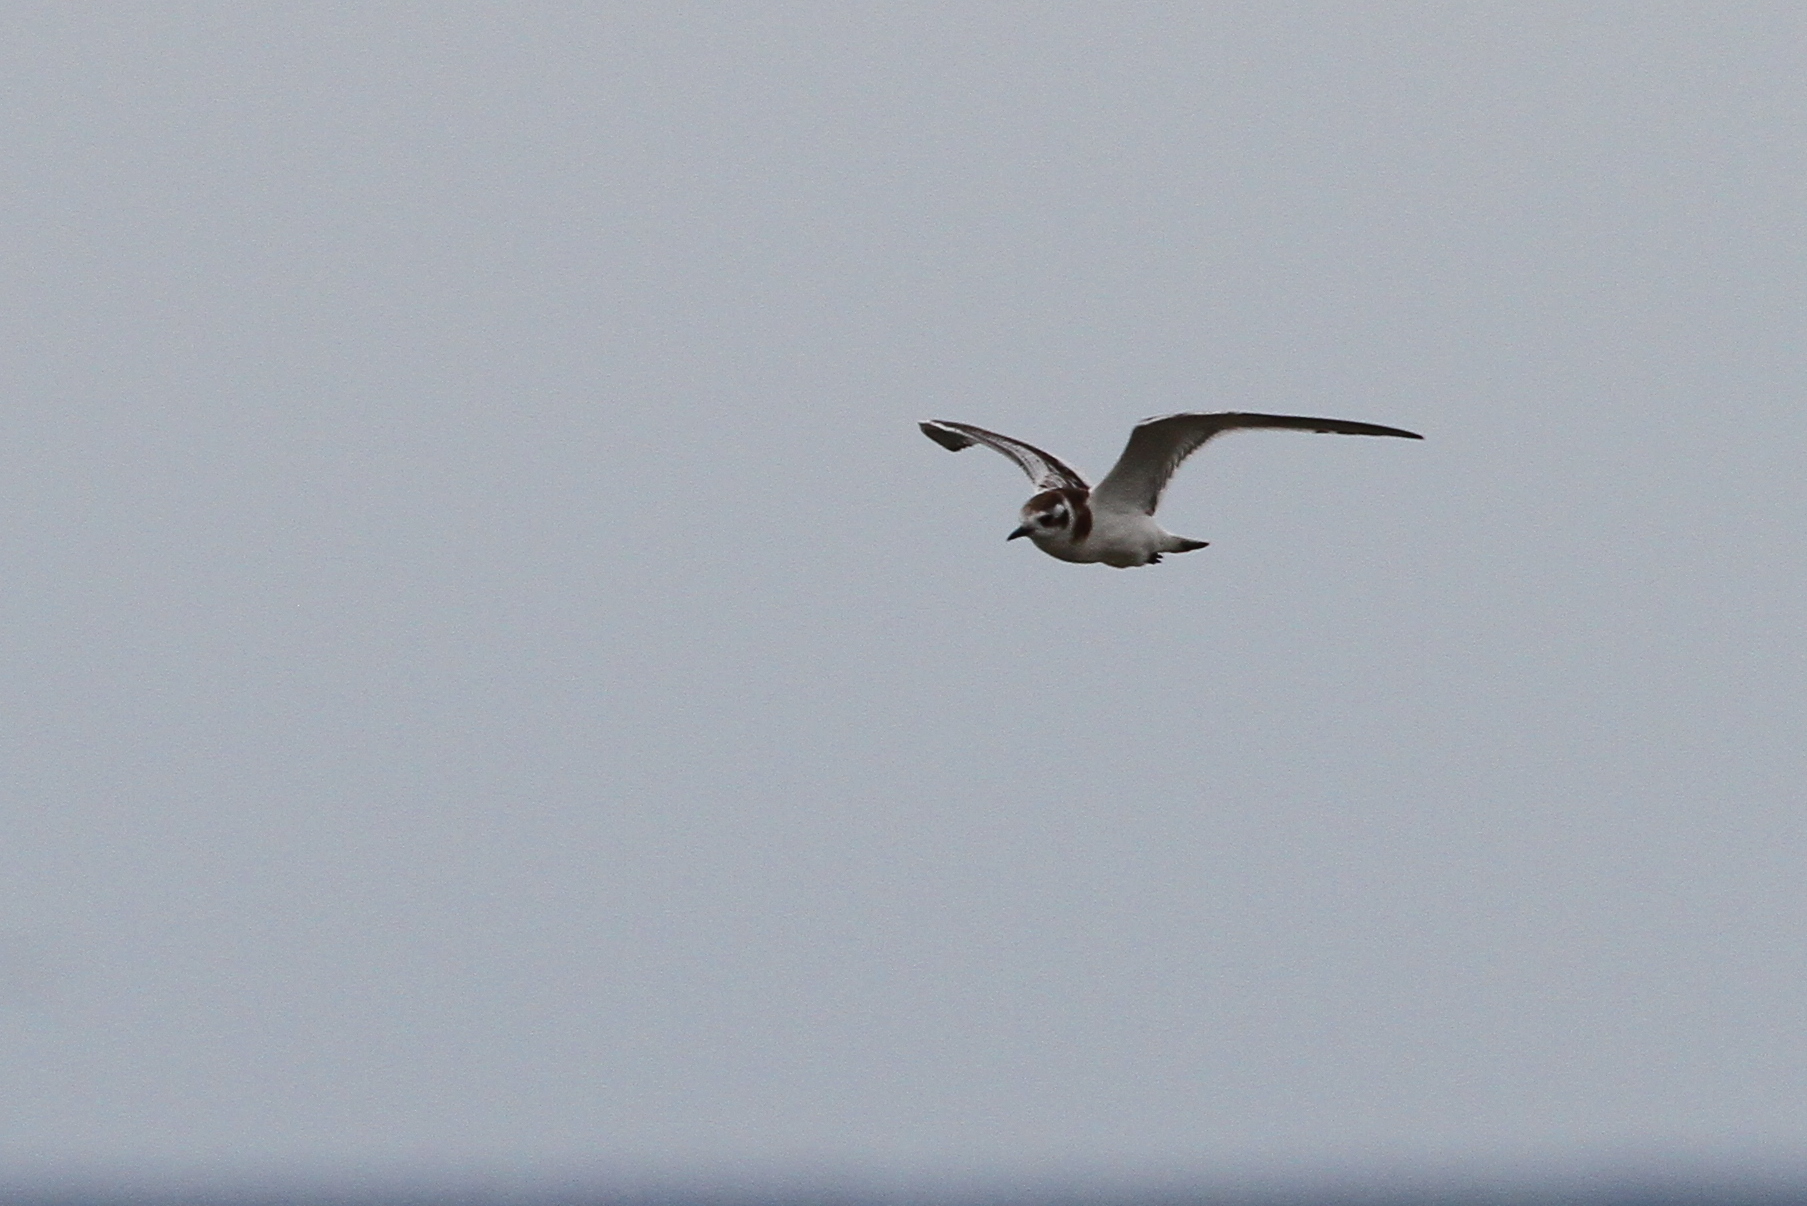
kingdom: Animalia
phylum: Chordata
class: Aves
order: Charadriiformes
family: Laridae
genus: Hydrocoloeus
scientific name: Hydrocoloeus minutus
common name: Little gull
